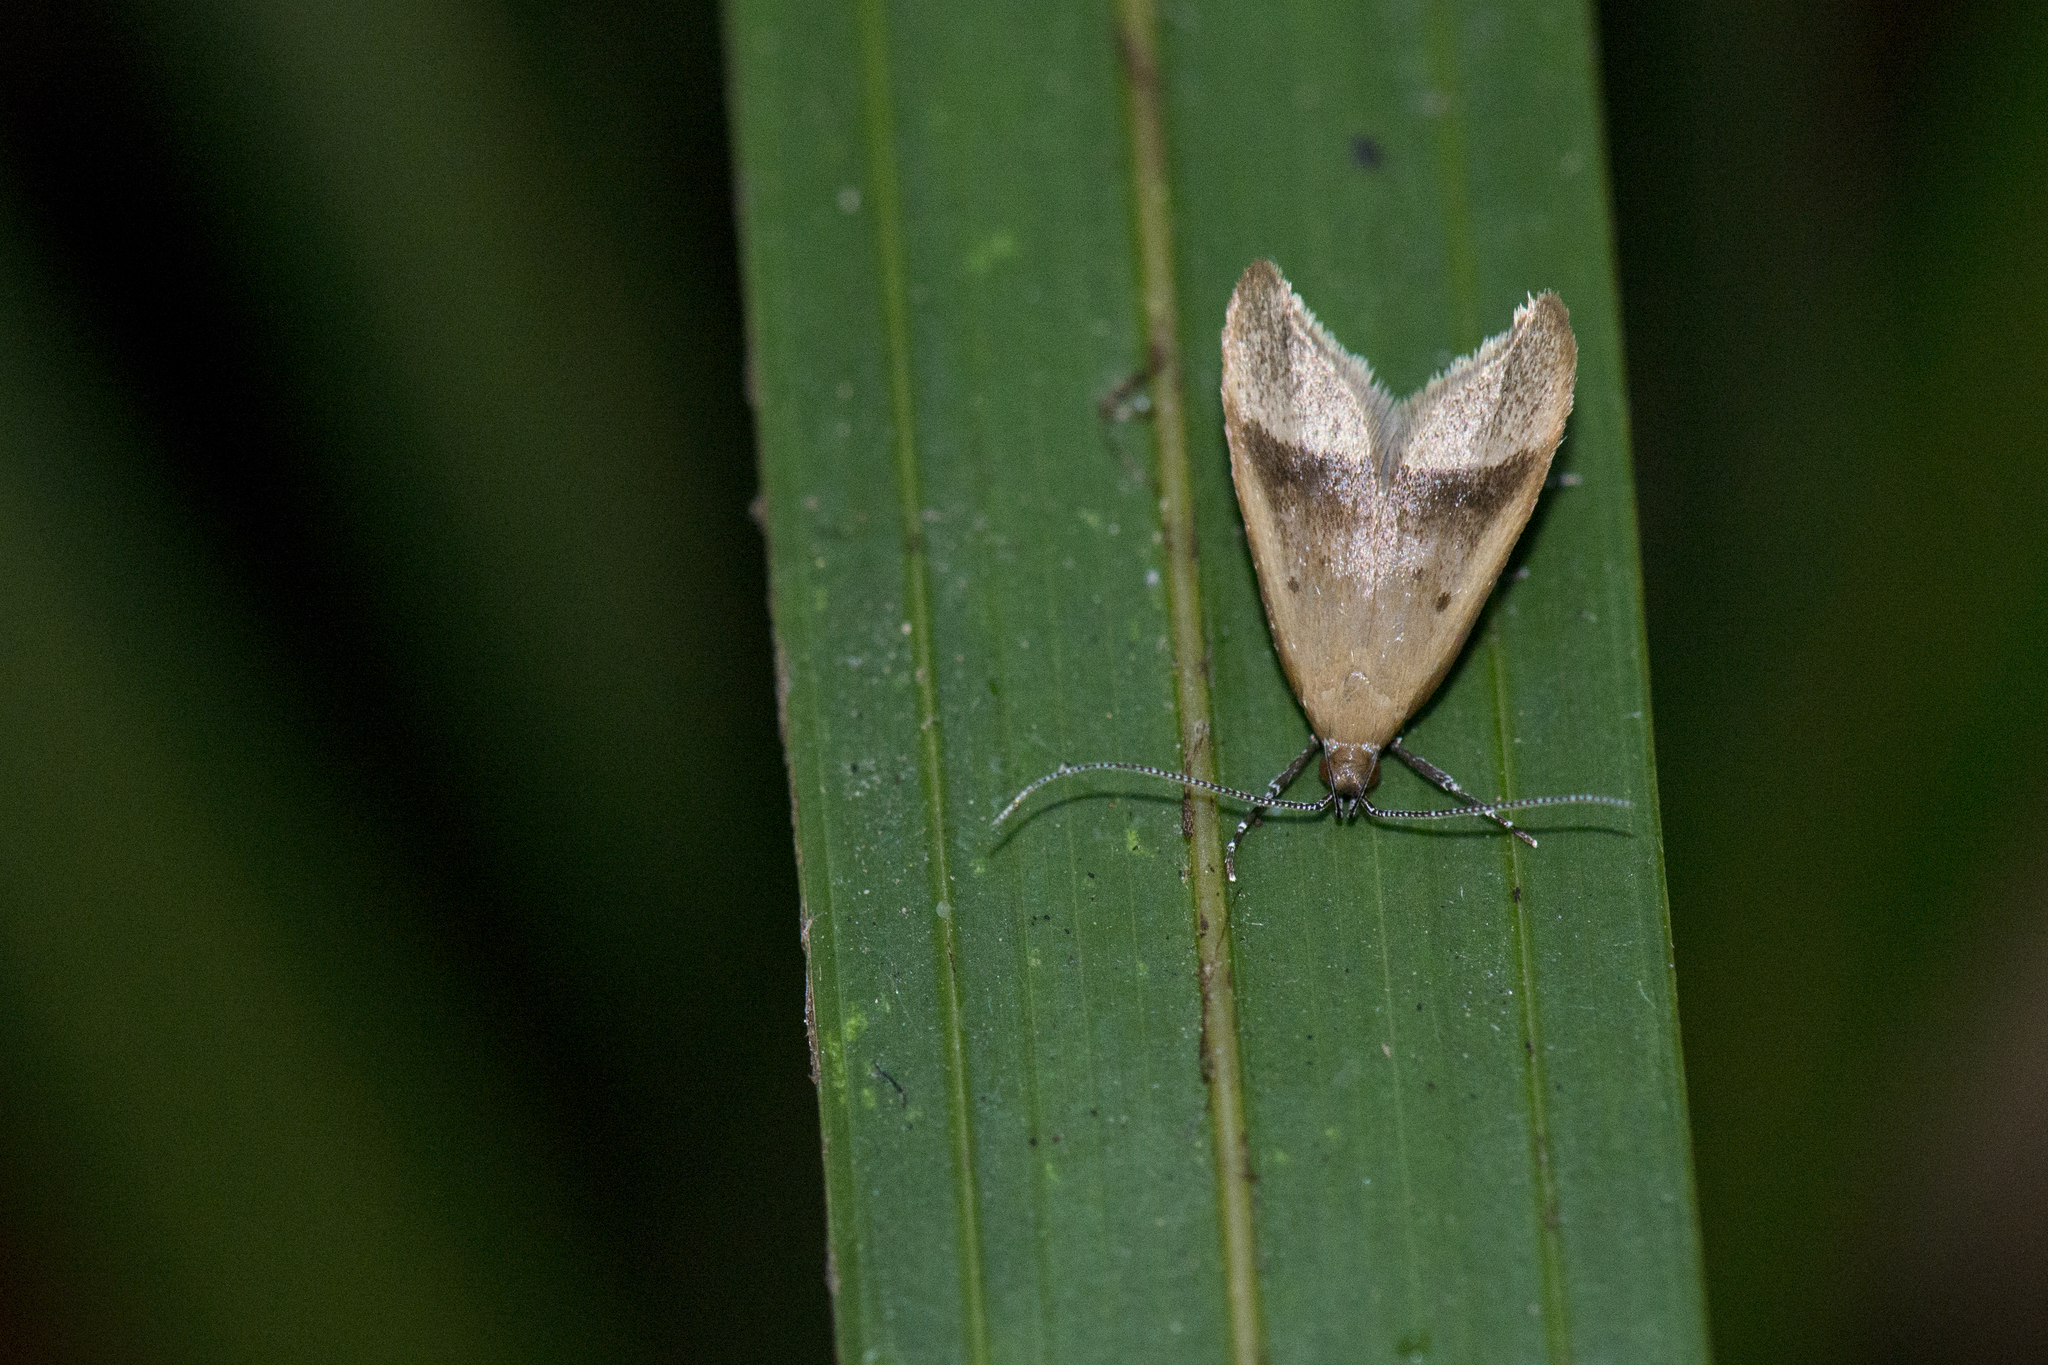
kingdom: Animalia
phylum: Arthropoda
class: Insecta
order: Lepidoptera
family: Oecophoridae
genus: Gymnobathra
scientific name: Gymnobathra hyetodes
